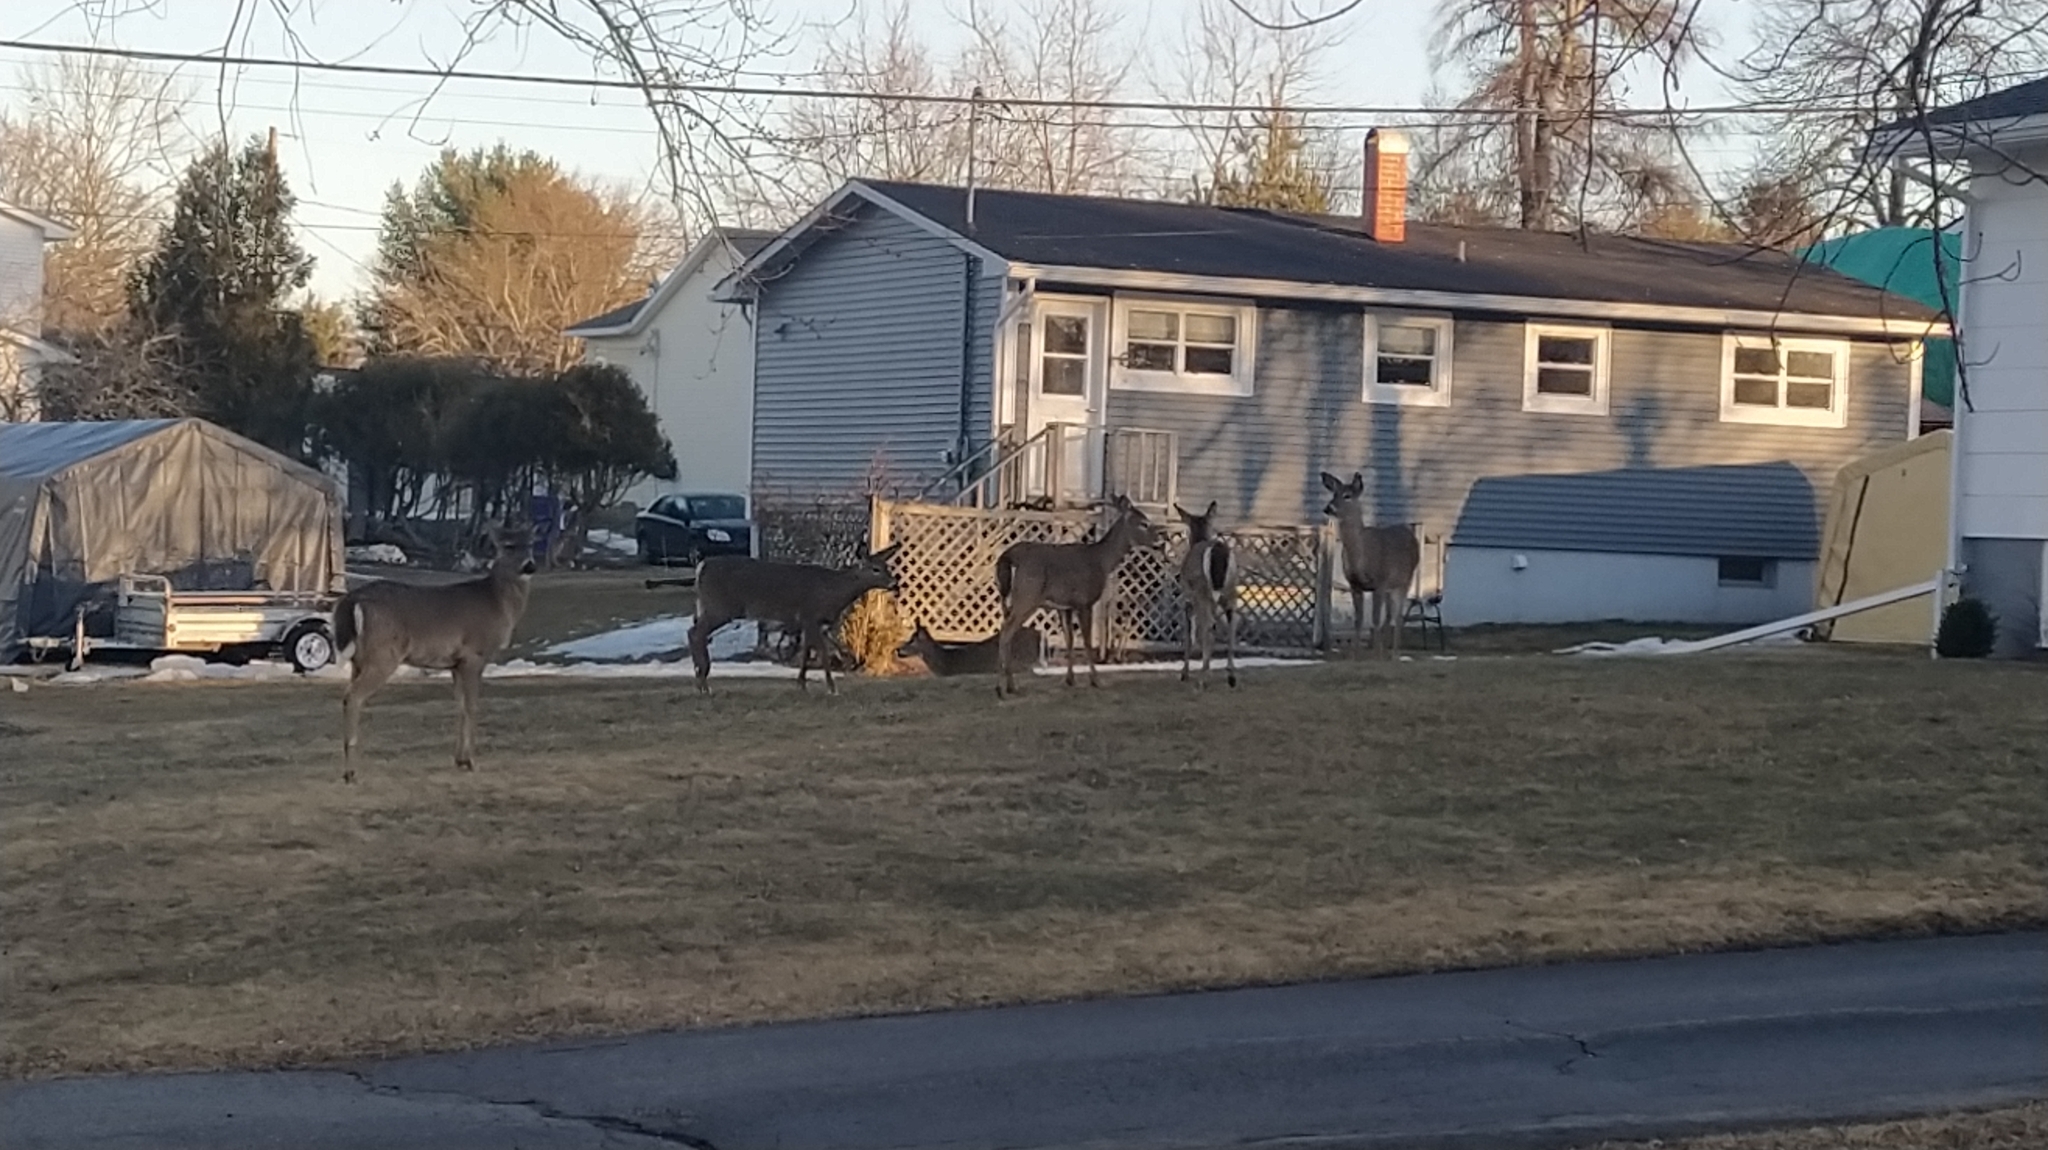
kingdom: Animalia
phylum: Chordata
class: Mammalia
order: Artiodactyla
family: Cervidae
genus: Odocoileus
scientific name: Odocoileus virginianus
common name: White-tailed deer
